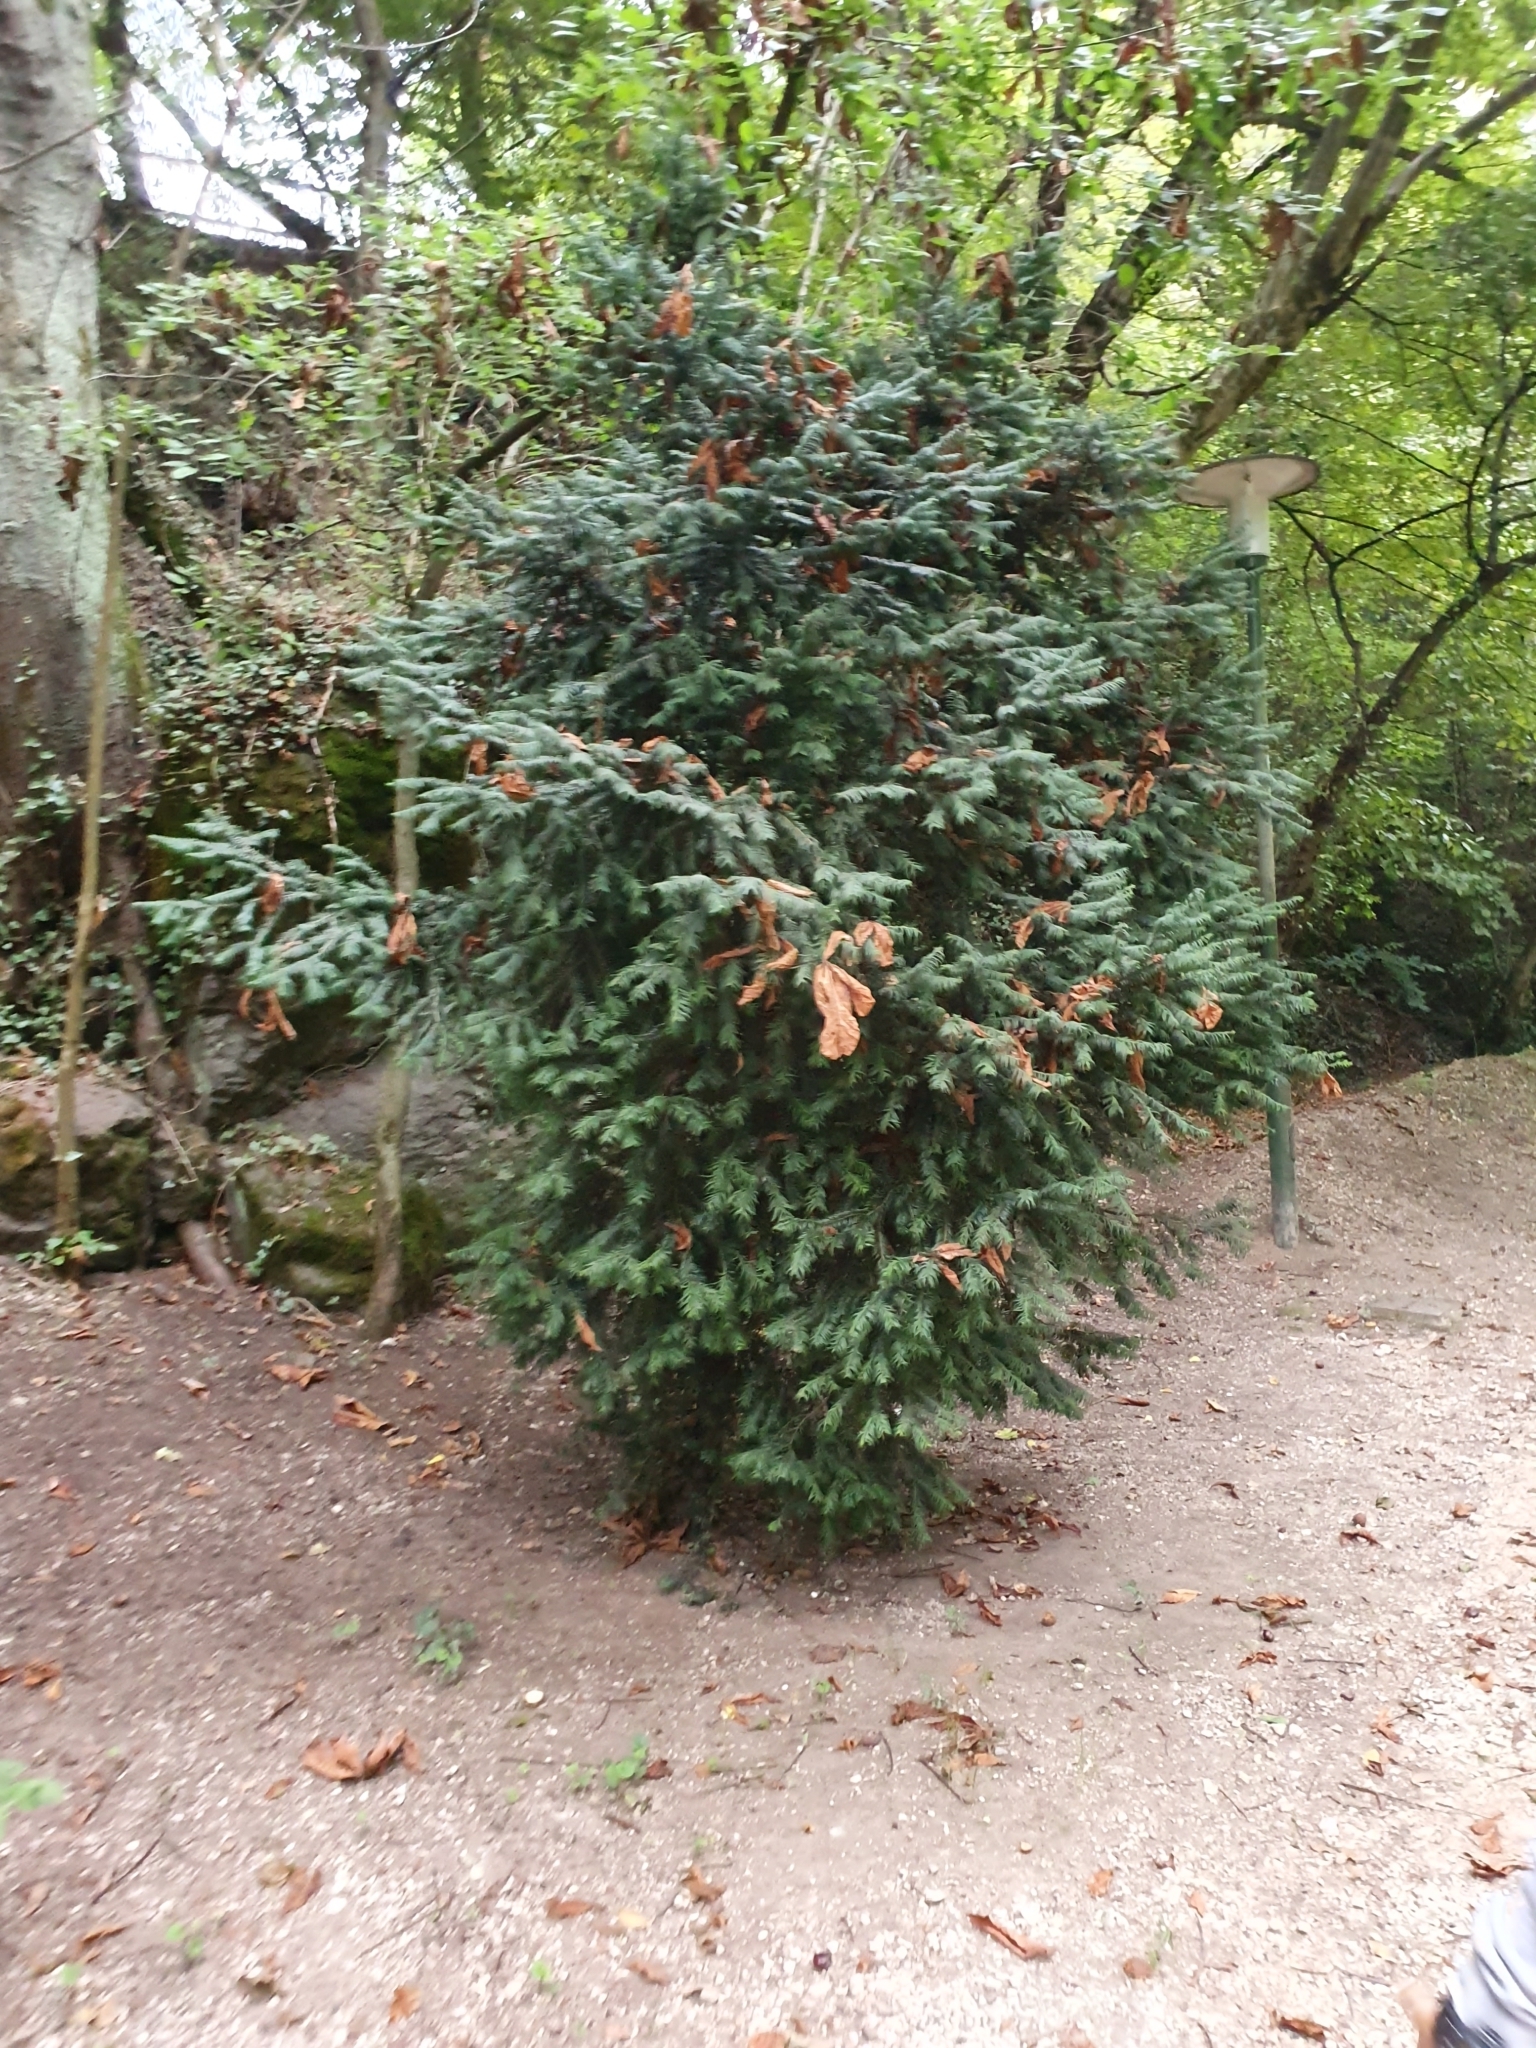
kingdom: Plantae
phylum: Tracheophyta
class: Pinopsida
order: Pinales
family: Taxaceae
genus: Taxus
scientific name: Taxus baccata
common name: Yew
